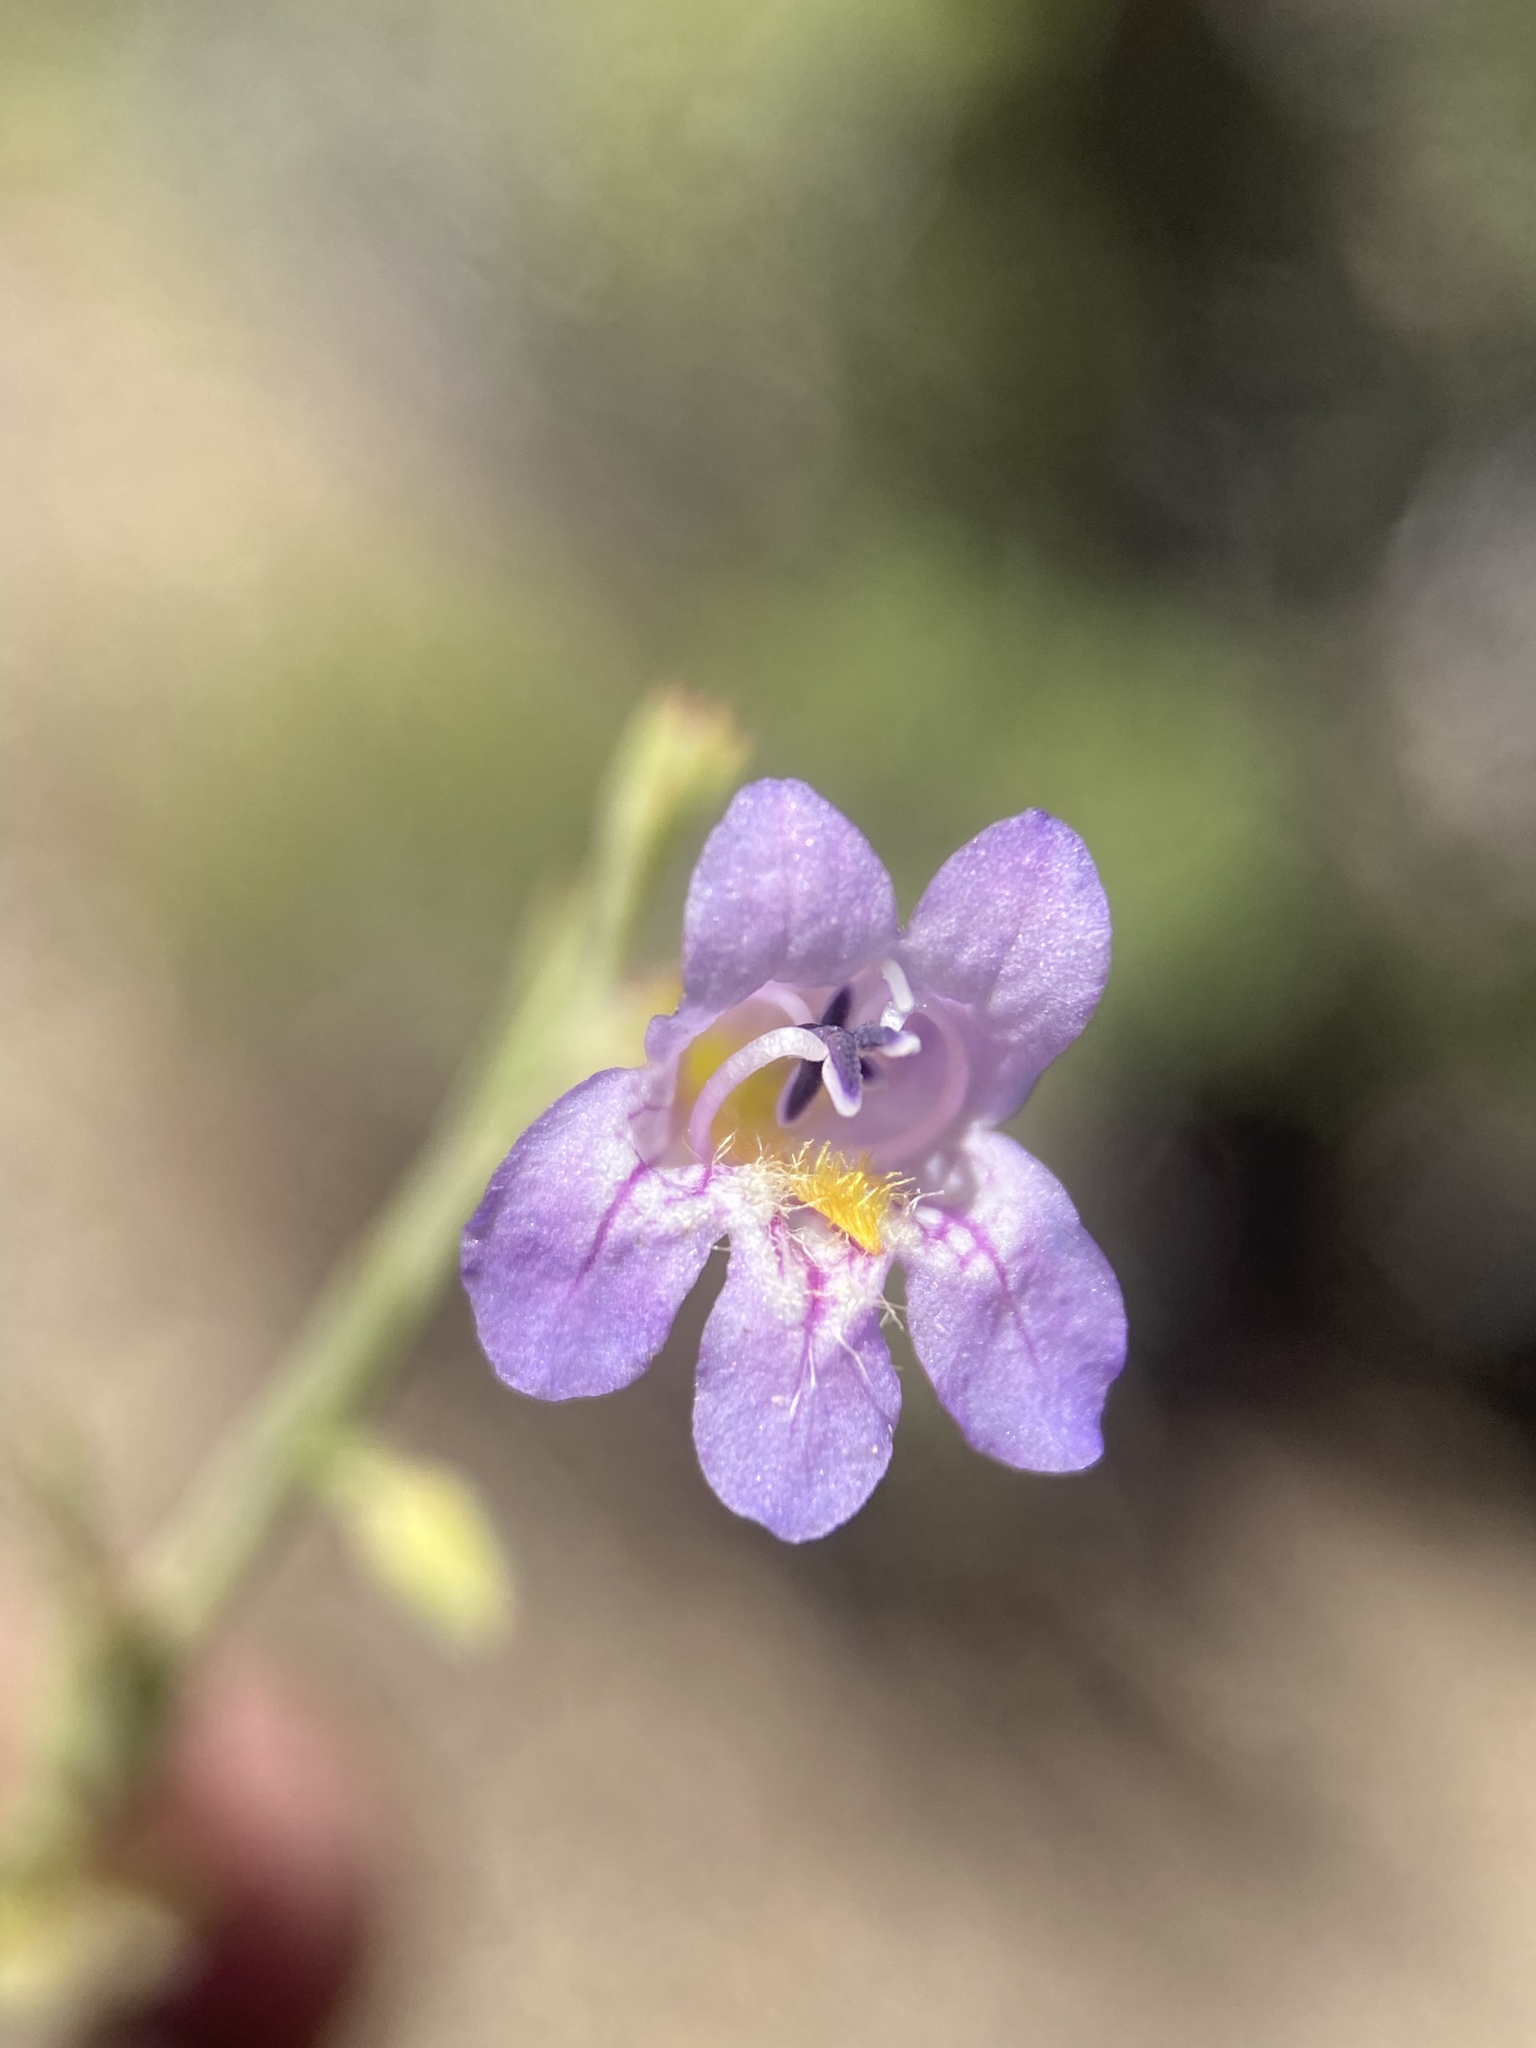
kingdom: Plantae
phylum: Tracheophyta
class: Magnoliopsida
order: Lamiales
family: Plantaginaceae
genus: Penstemon
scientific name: Penstemon linarioides
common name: Siler's penstemon
